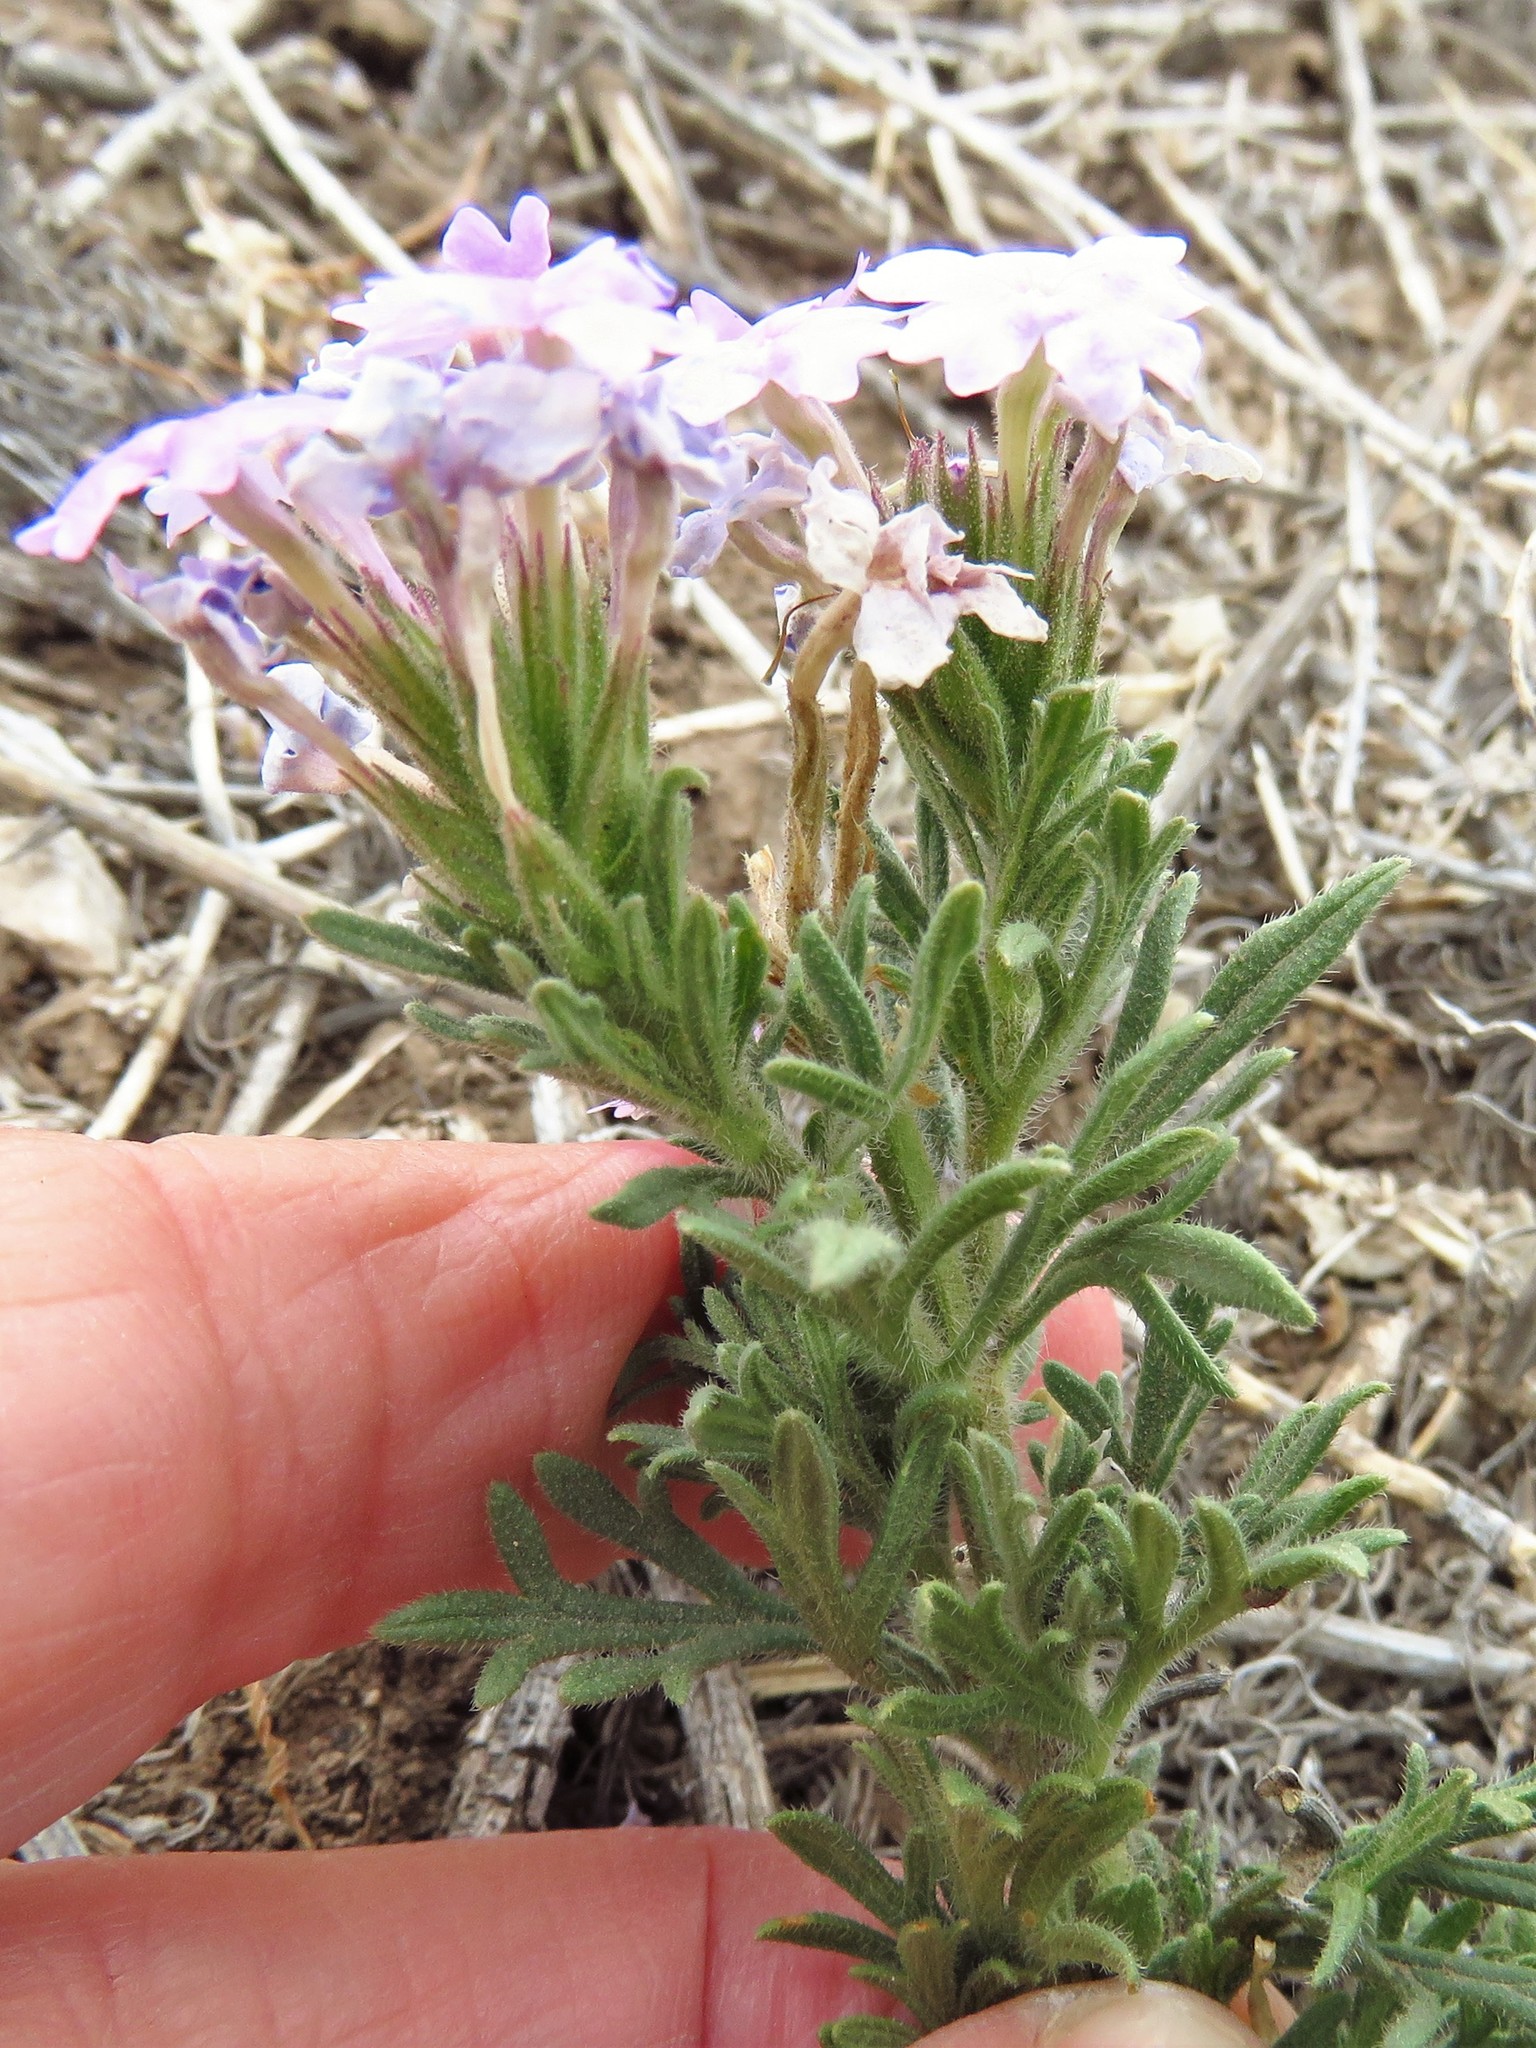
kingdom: Plantae
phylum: Tracheophyta
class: Magnoliopsida
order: Lamiales
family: Verbenaceae
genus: Verbena
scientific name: Verbena bipinnatifida
